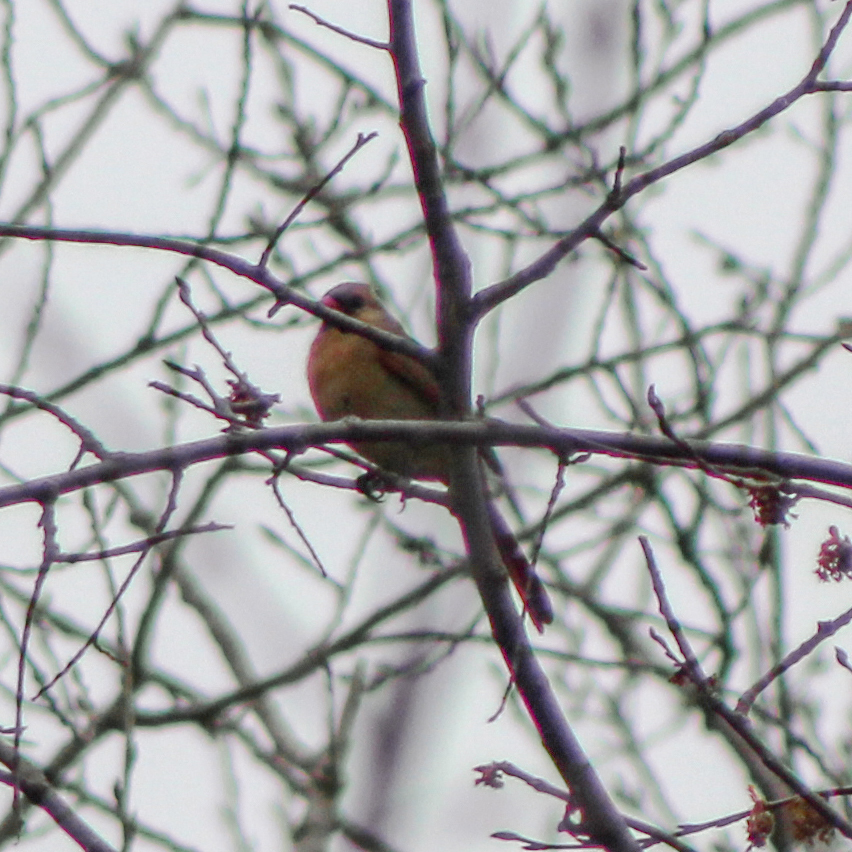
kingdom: Animalia
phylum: Chordata
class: Aves
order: Passeriformes
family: Cardinalidae
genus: Cardinalis
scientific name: Cardinalis cardinalis
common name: Northern cardinal
